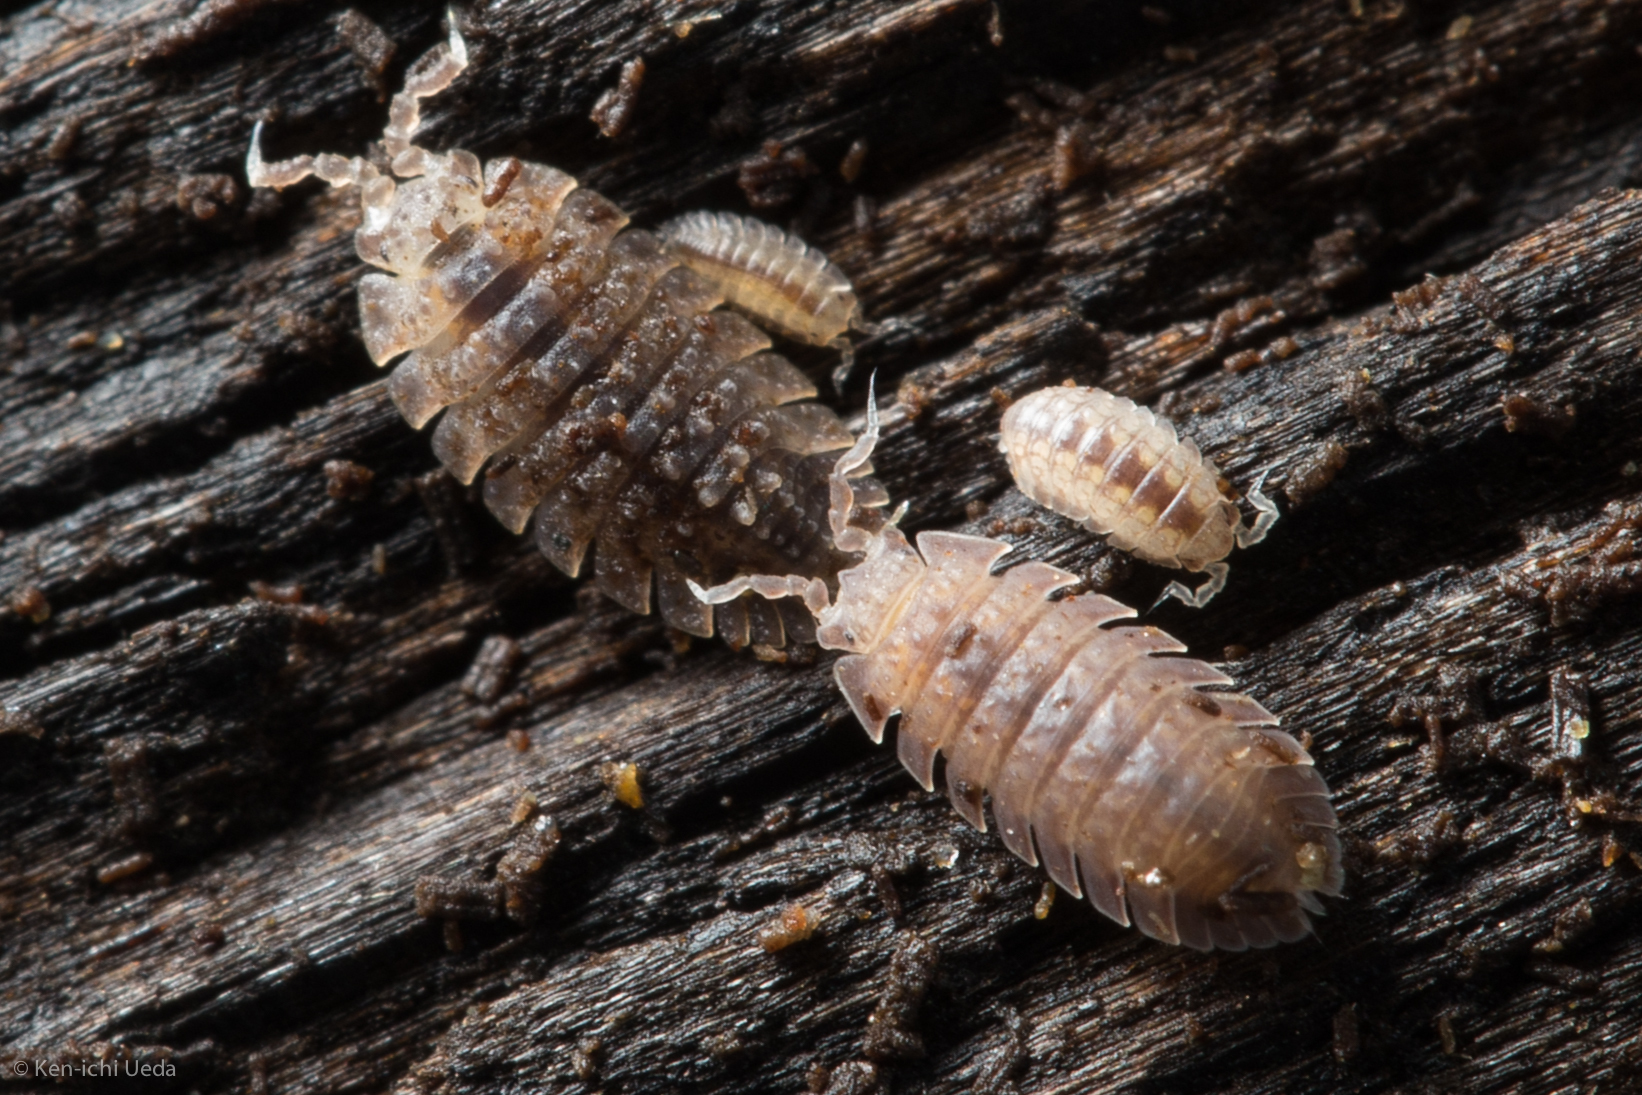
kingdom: Animalia
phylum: Arthropoda
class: Malacostraca
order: Isopoda
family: Detonidae
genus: Armadilloniscus
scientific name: Armadilloniscus coronacapitalis
